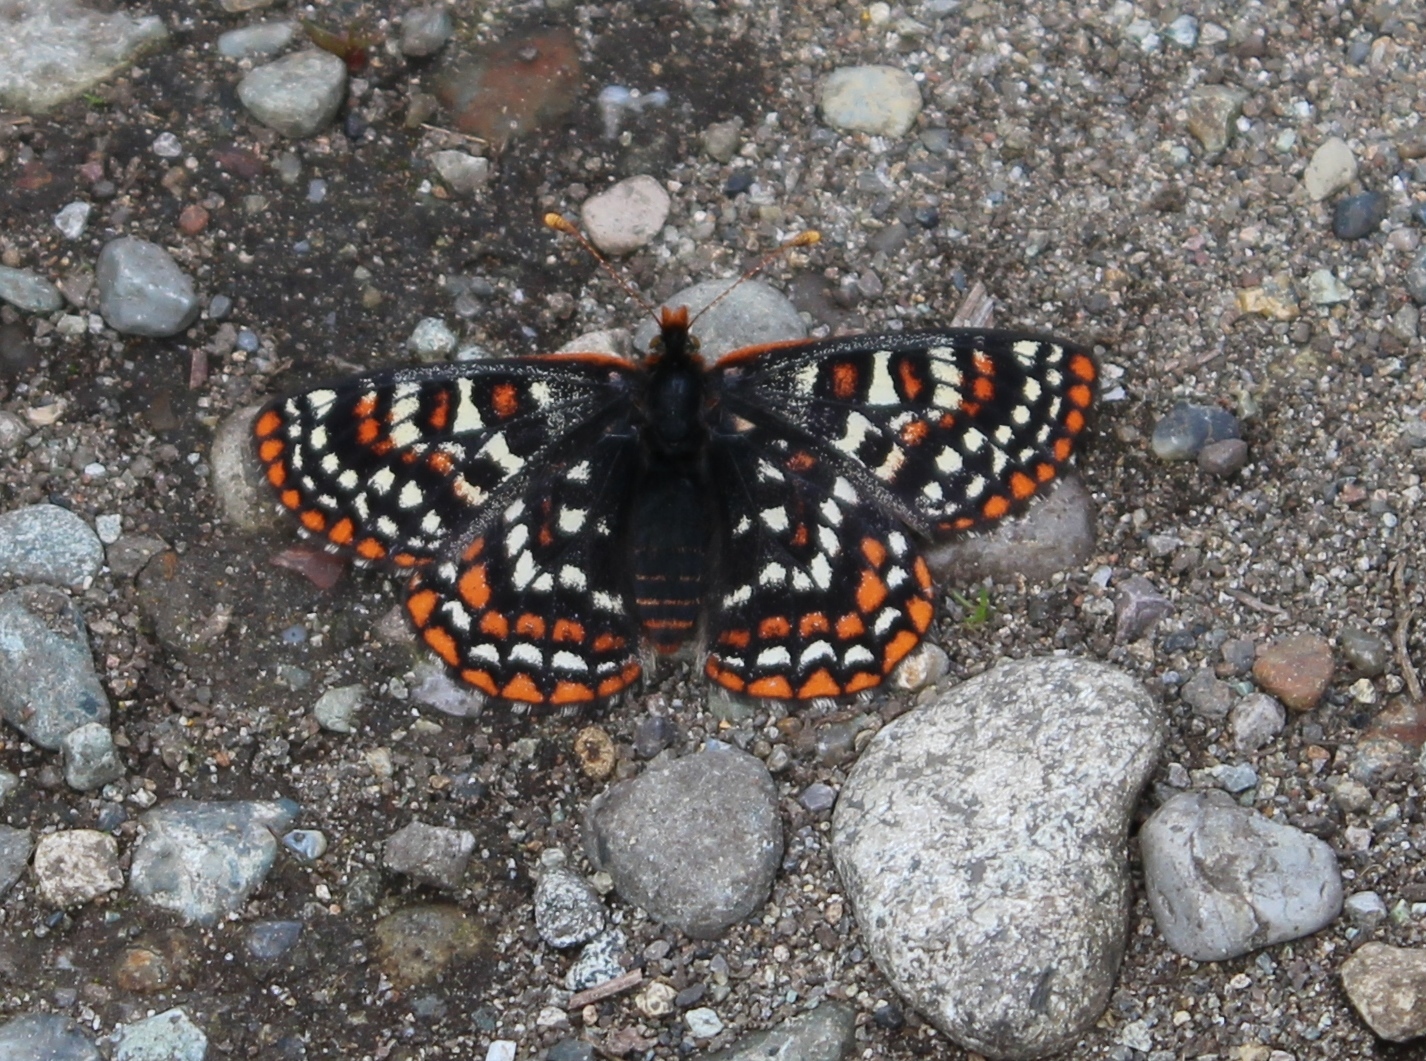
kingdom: Animalia
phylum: Arthropoda
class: Insecta
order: Lepidoptera
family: Nymphalidae
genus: Occidryas
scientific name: Occidryas editha
